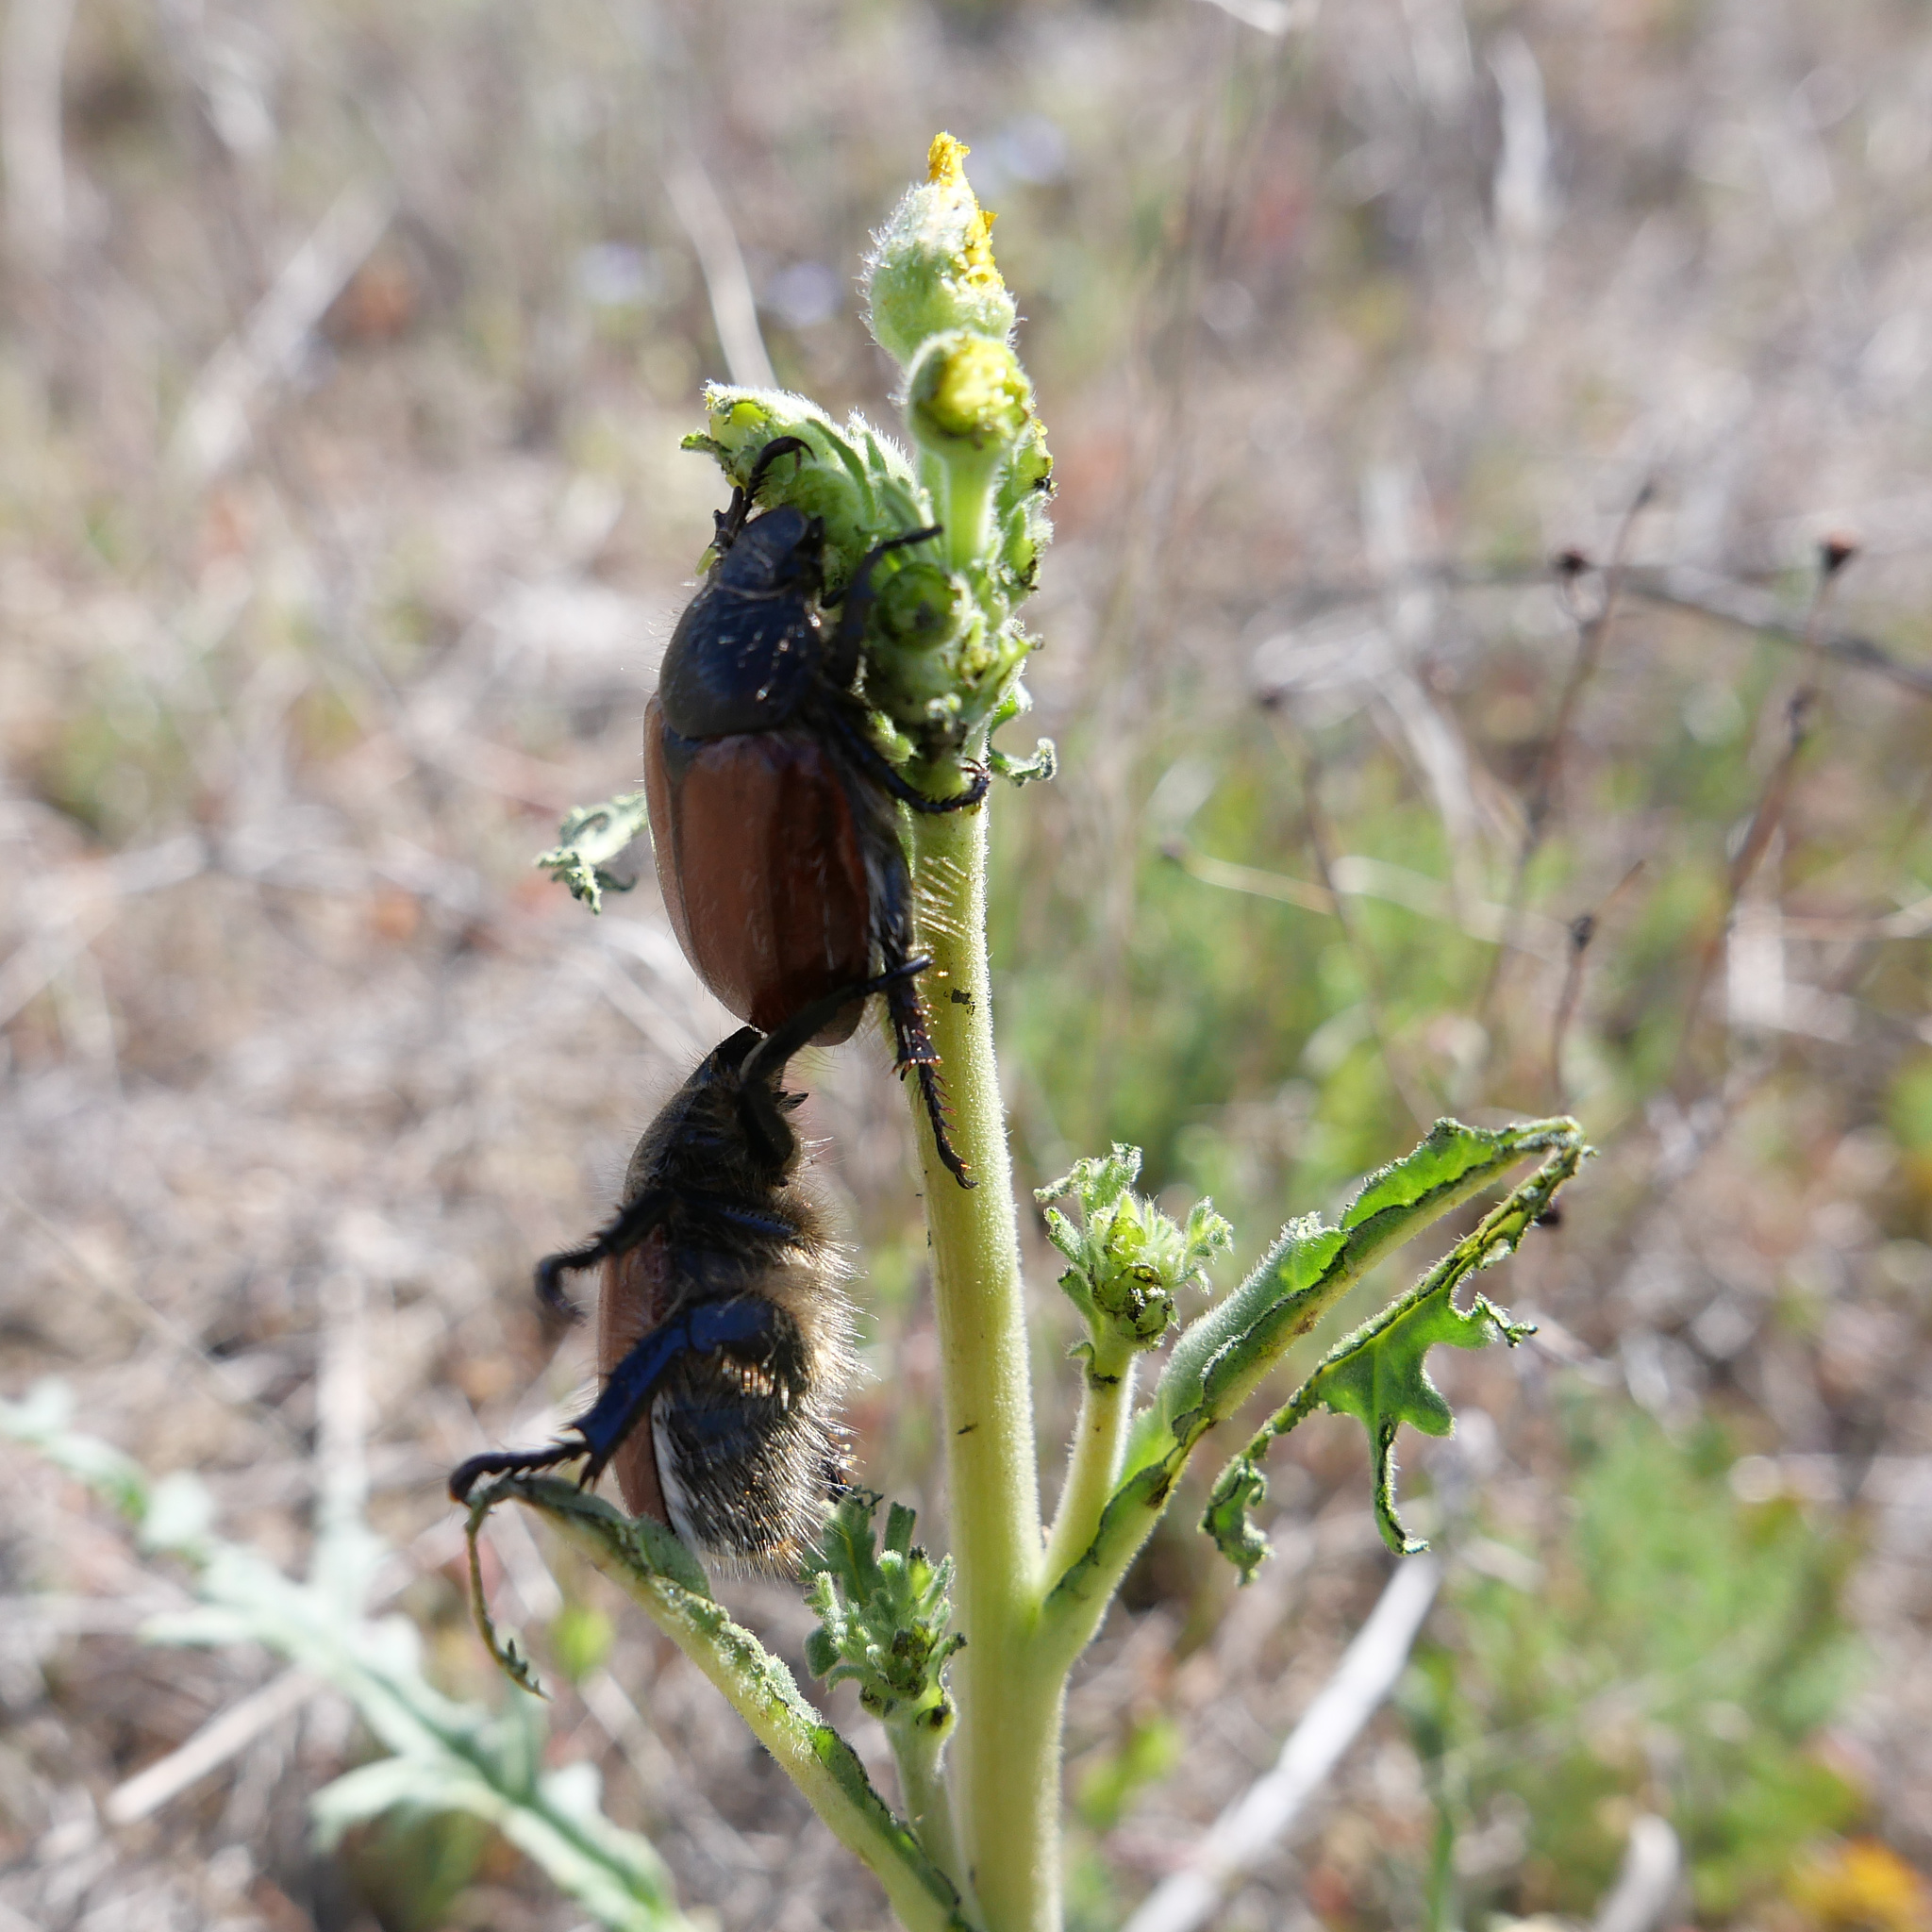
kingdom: Animalia
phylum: Arthropoda
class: Insecta
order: Coleoptera
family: Scarabaeidae
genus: Paracotalpa
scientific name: Paracotalpa ursina
